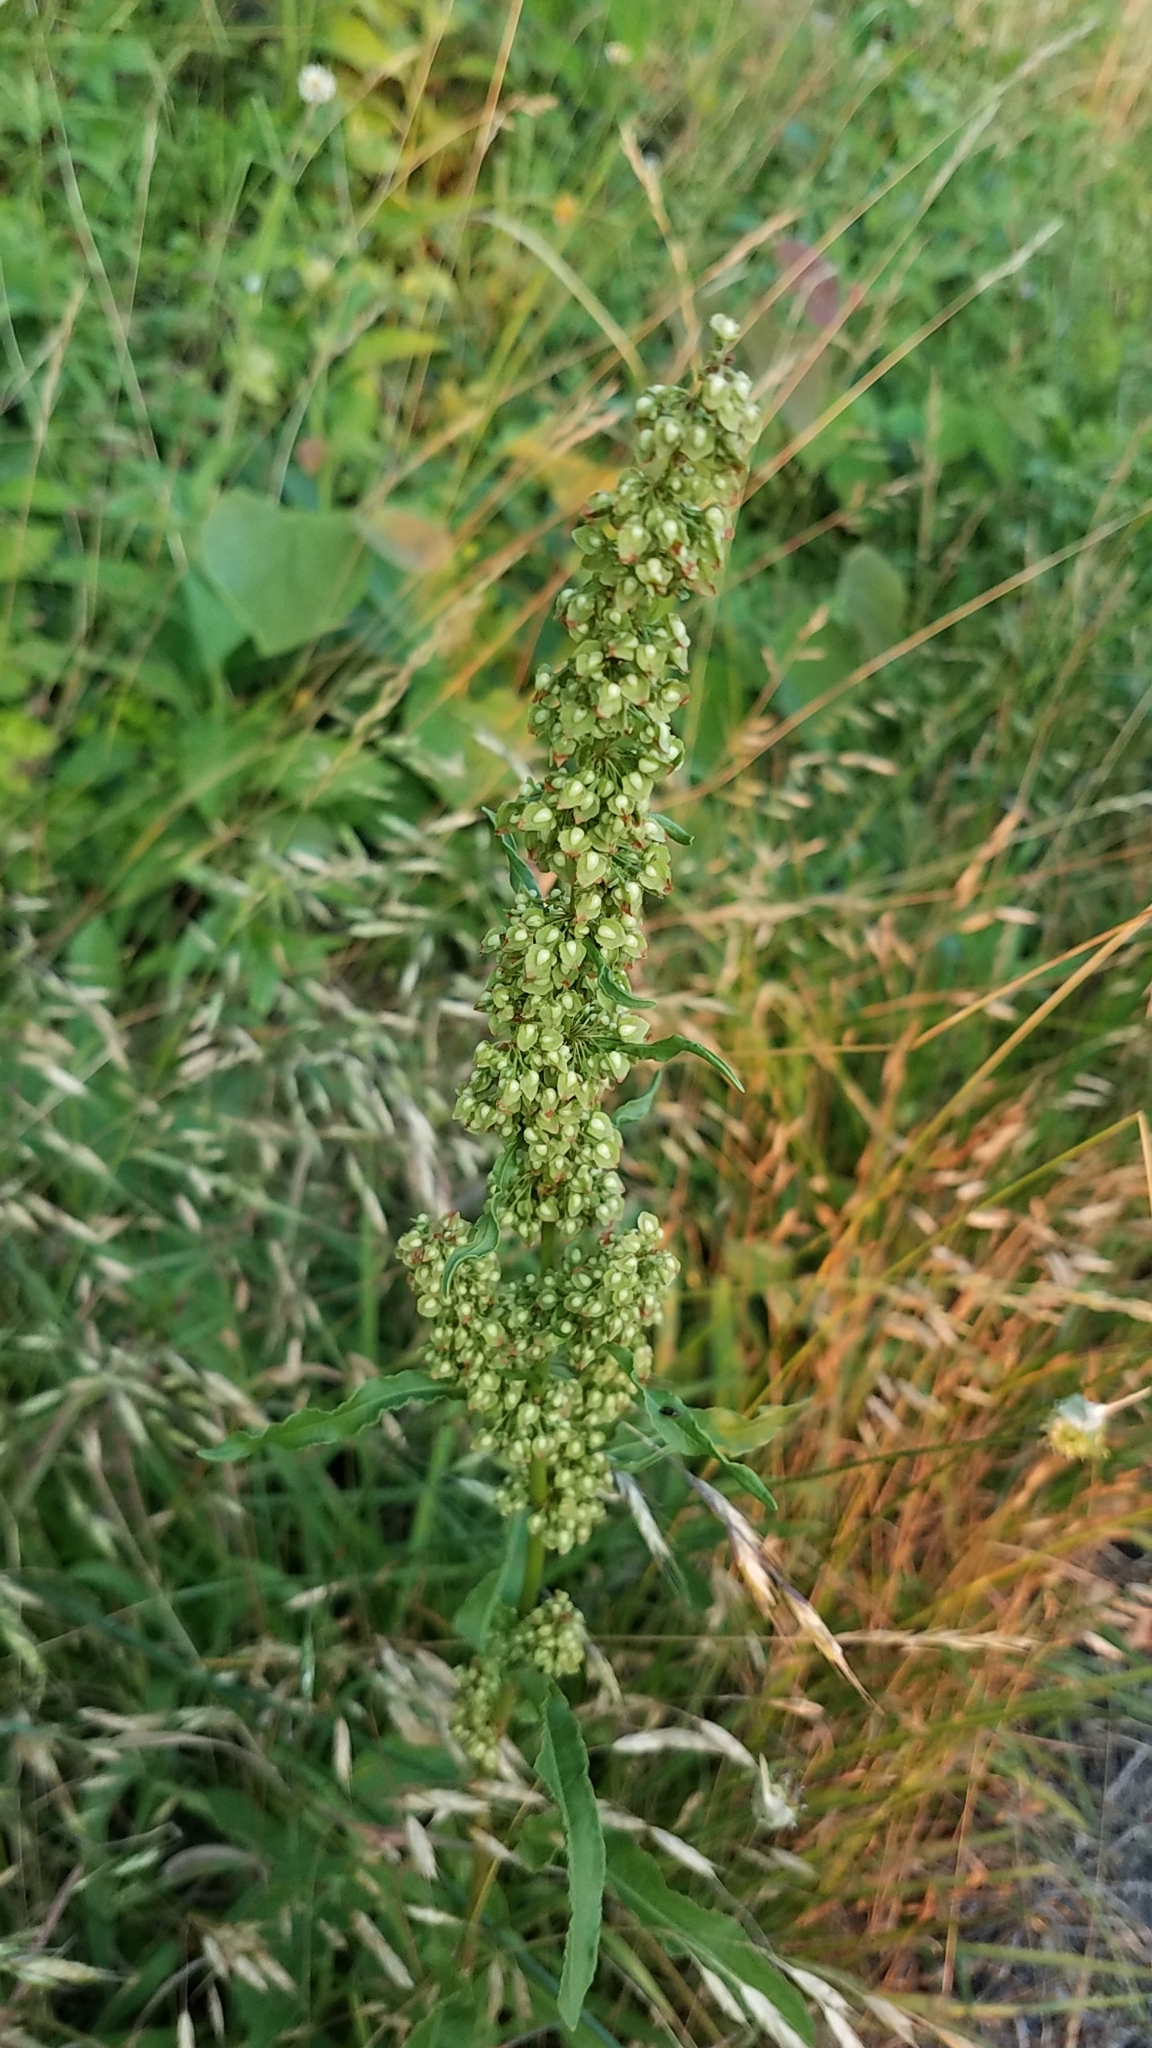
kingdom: Plantae
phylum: Tracheophyta
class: Magnoliopsida
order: Caryophyllales
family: Polygonaceae
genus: Rumex
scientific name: Rumex crispus
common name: Curled dock
